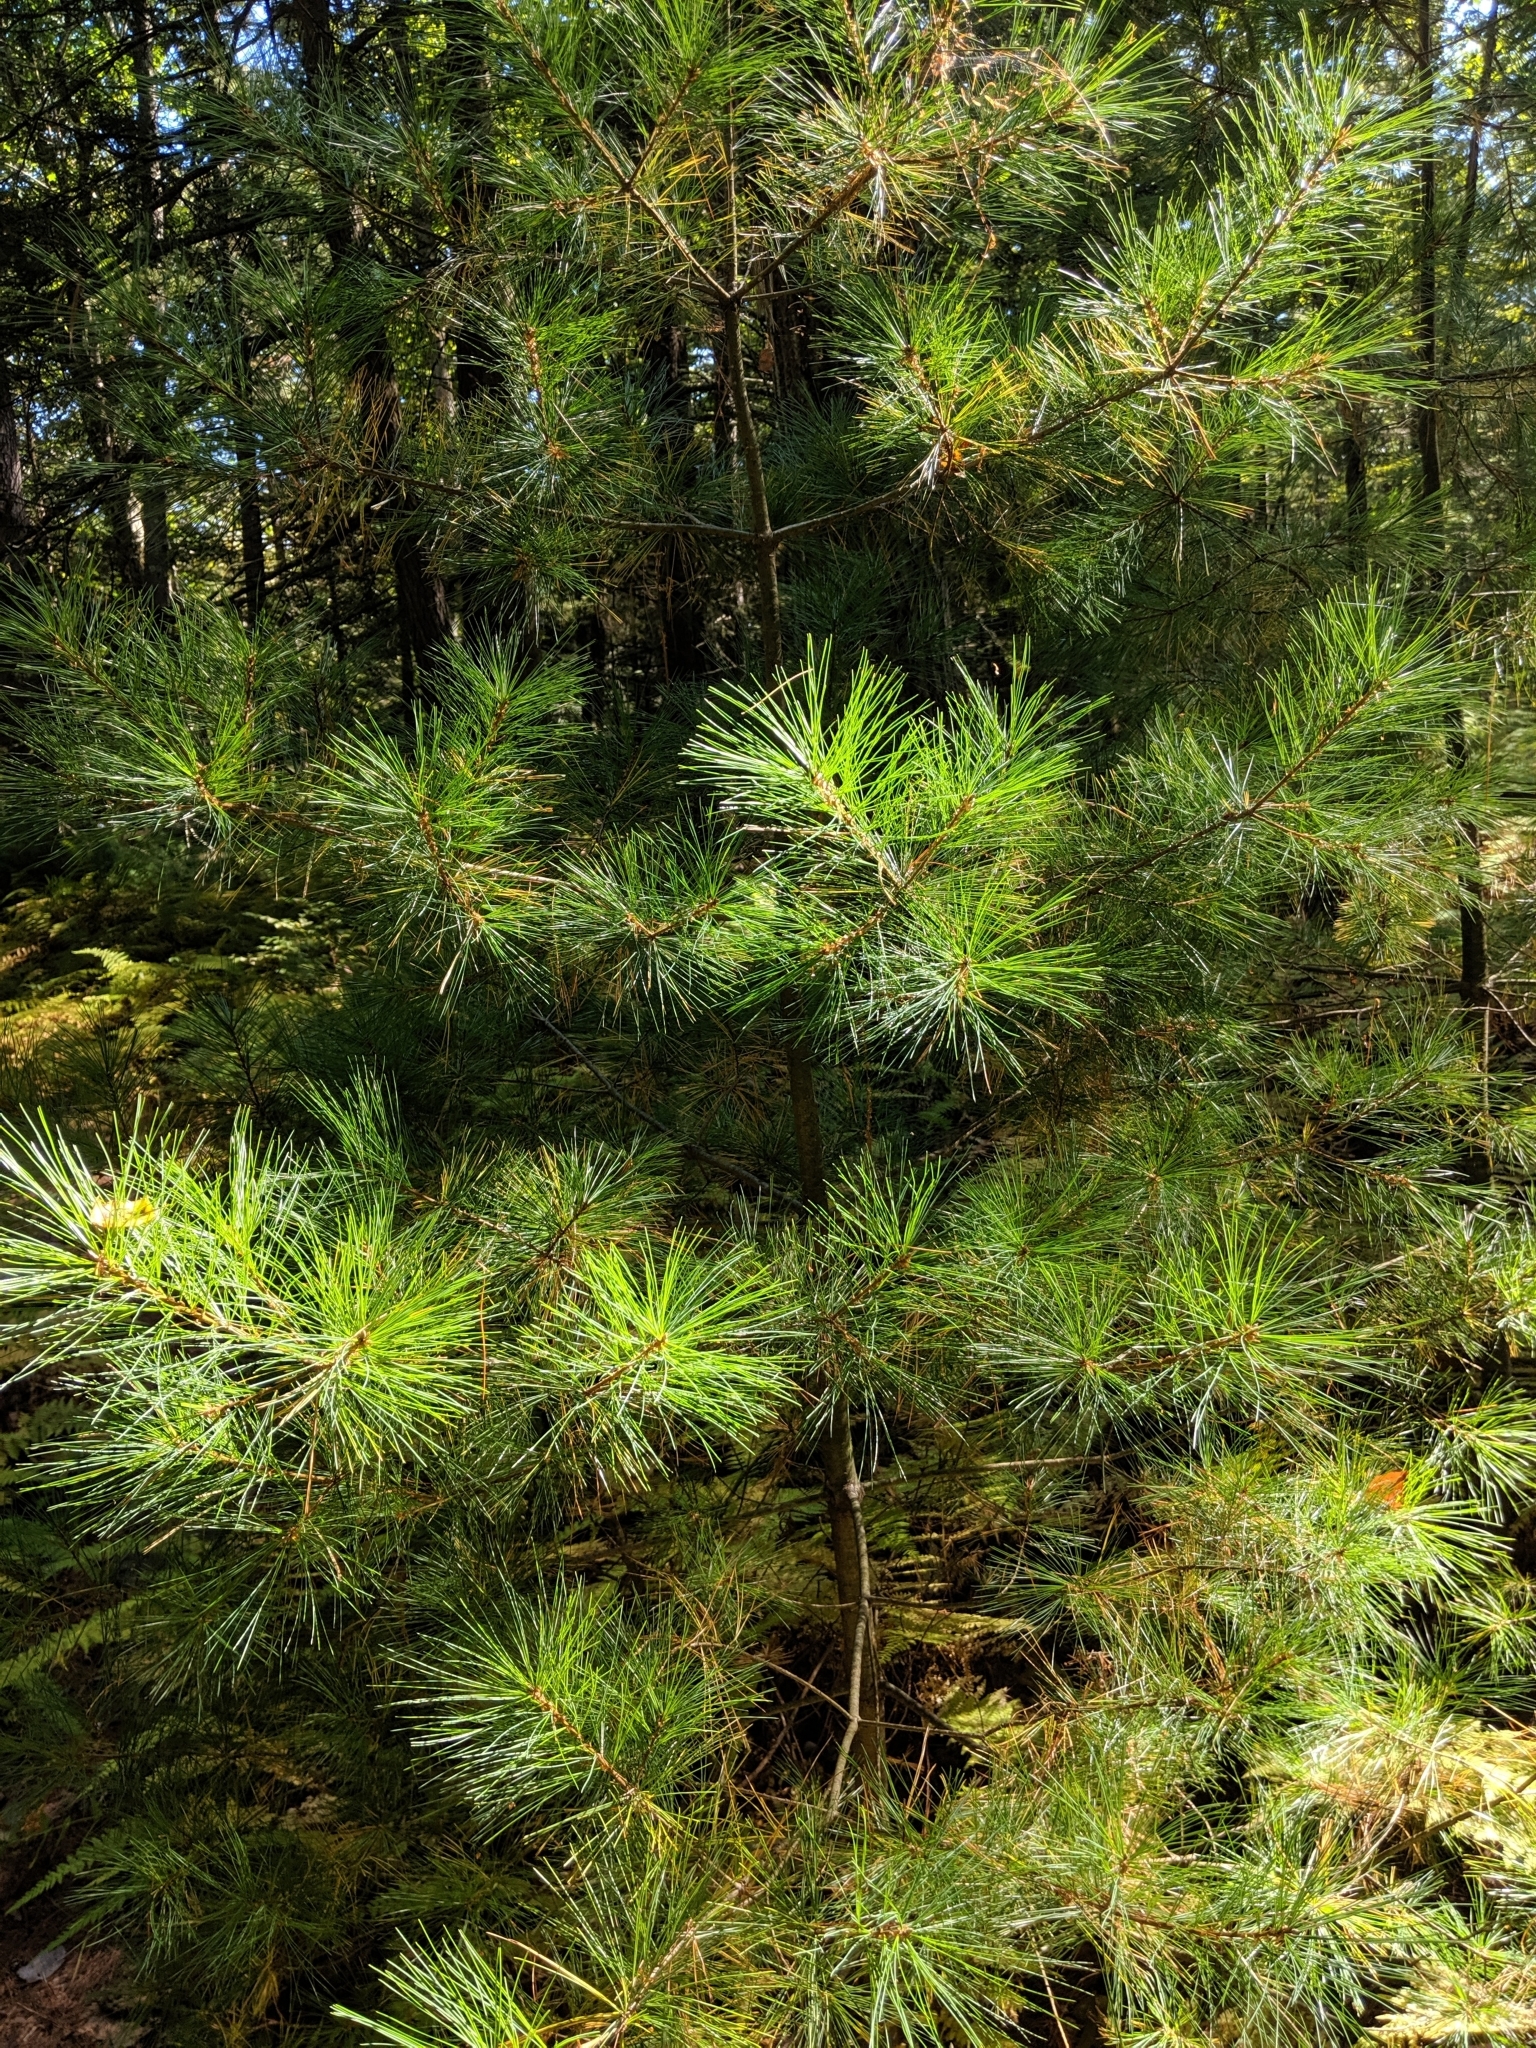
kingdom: Plantae
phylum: Tracheophyta
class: Pinopsida
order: Pinales
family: Pinaceae
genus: Pinus
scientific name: Pinus strobus
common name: Weymouth pine
